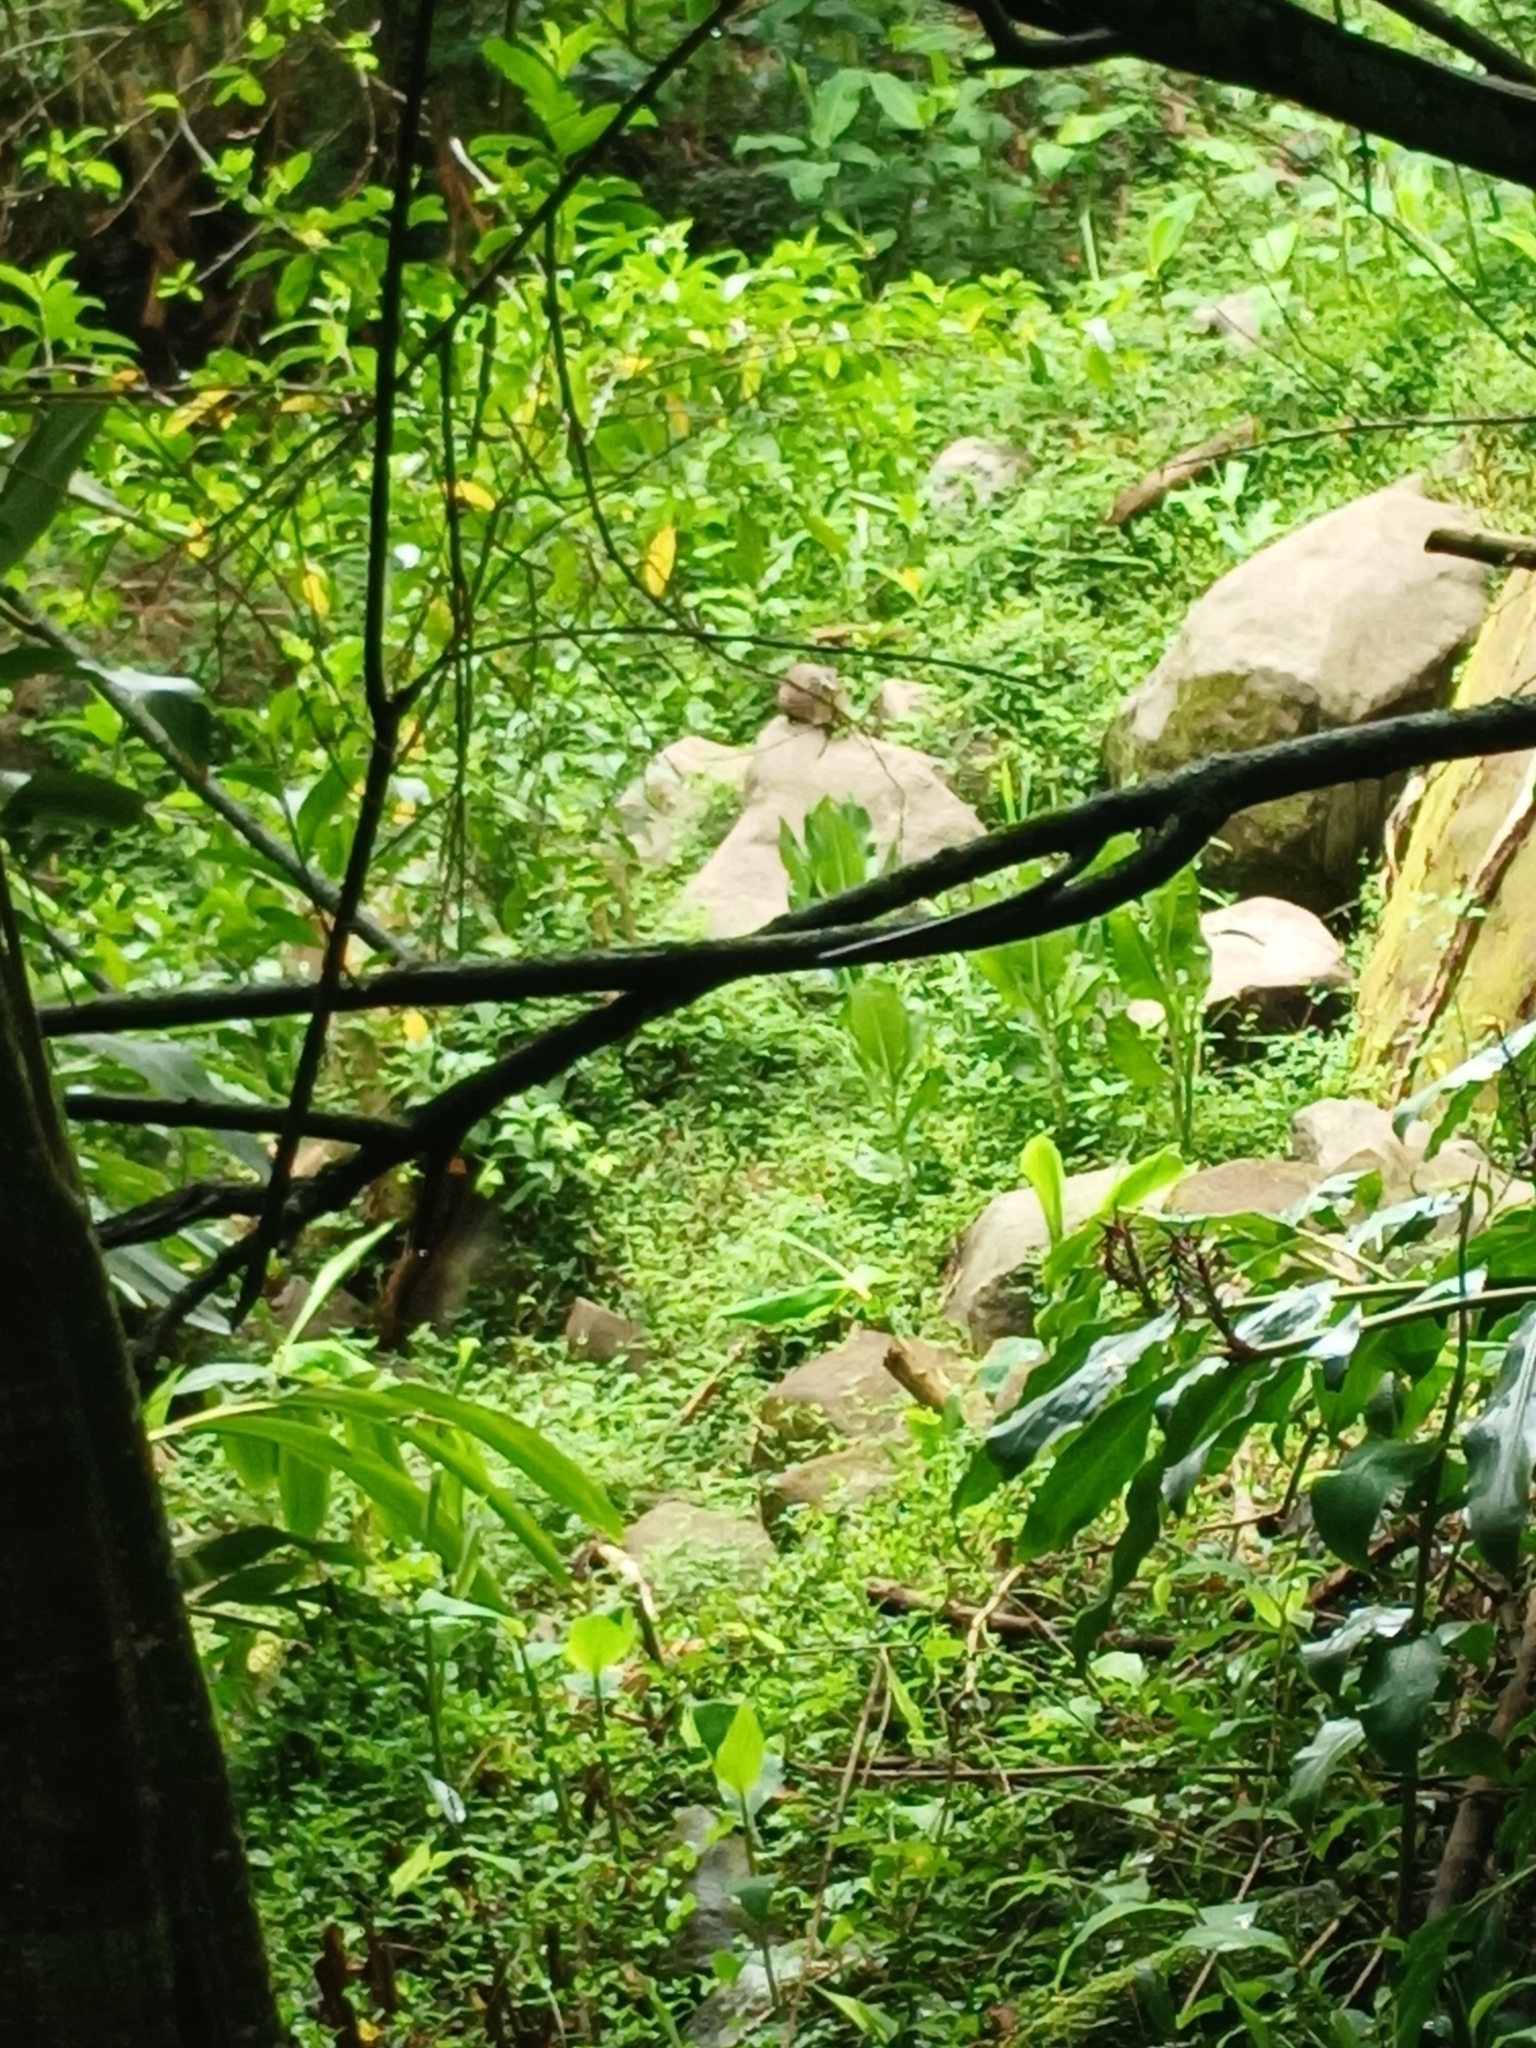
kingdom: Animalia
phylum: Chordata
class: Mammalia
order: Hyracoidea
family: Procaviidae
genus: Procavia
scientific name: Procavia capensis
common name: Rock hyrax
